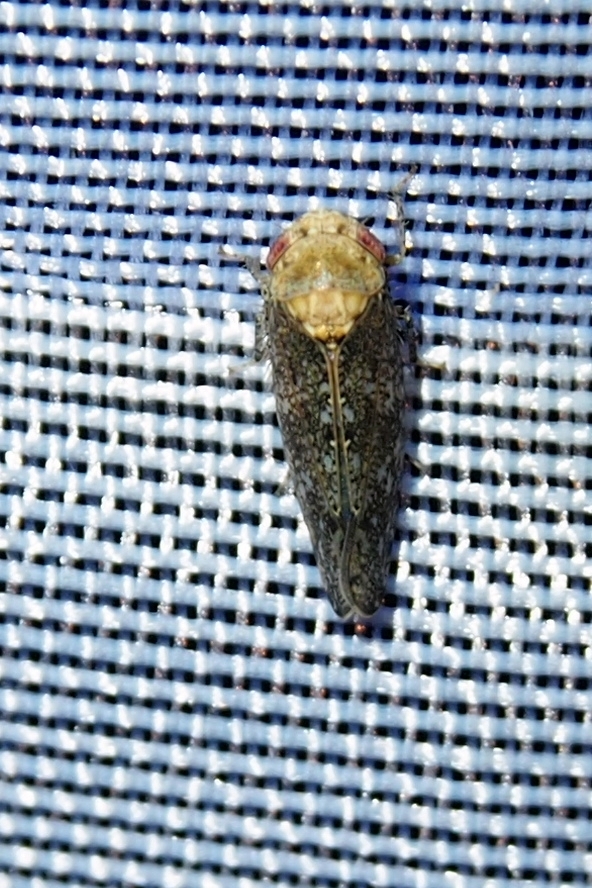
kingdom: Animalia
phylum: Arthropoda
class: Insecta
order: Hemiptera
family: Cicadellidae
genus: Paraphlepsius
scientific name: Paraphlepsius collitus
